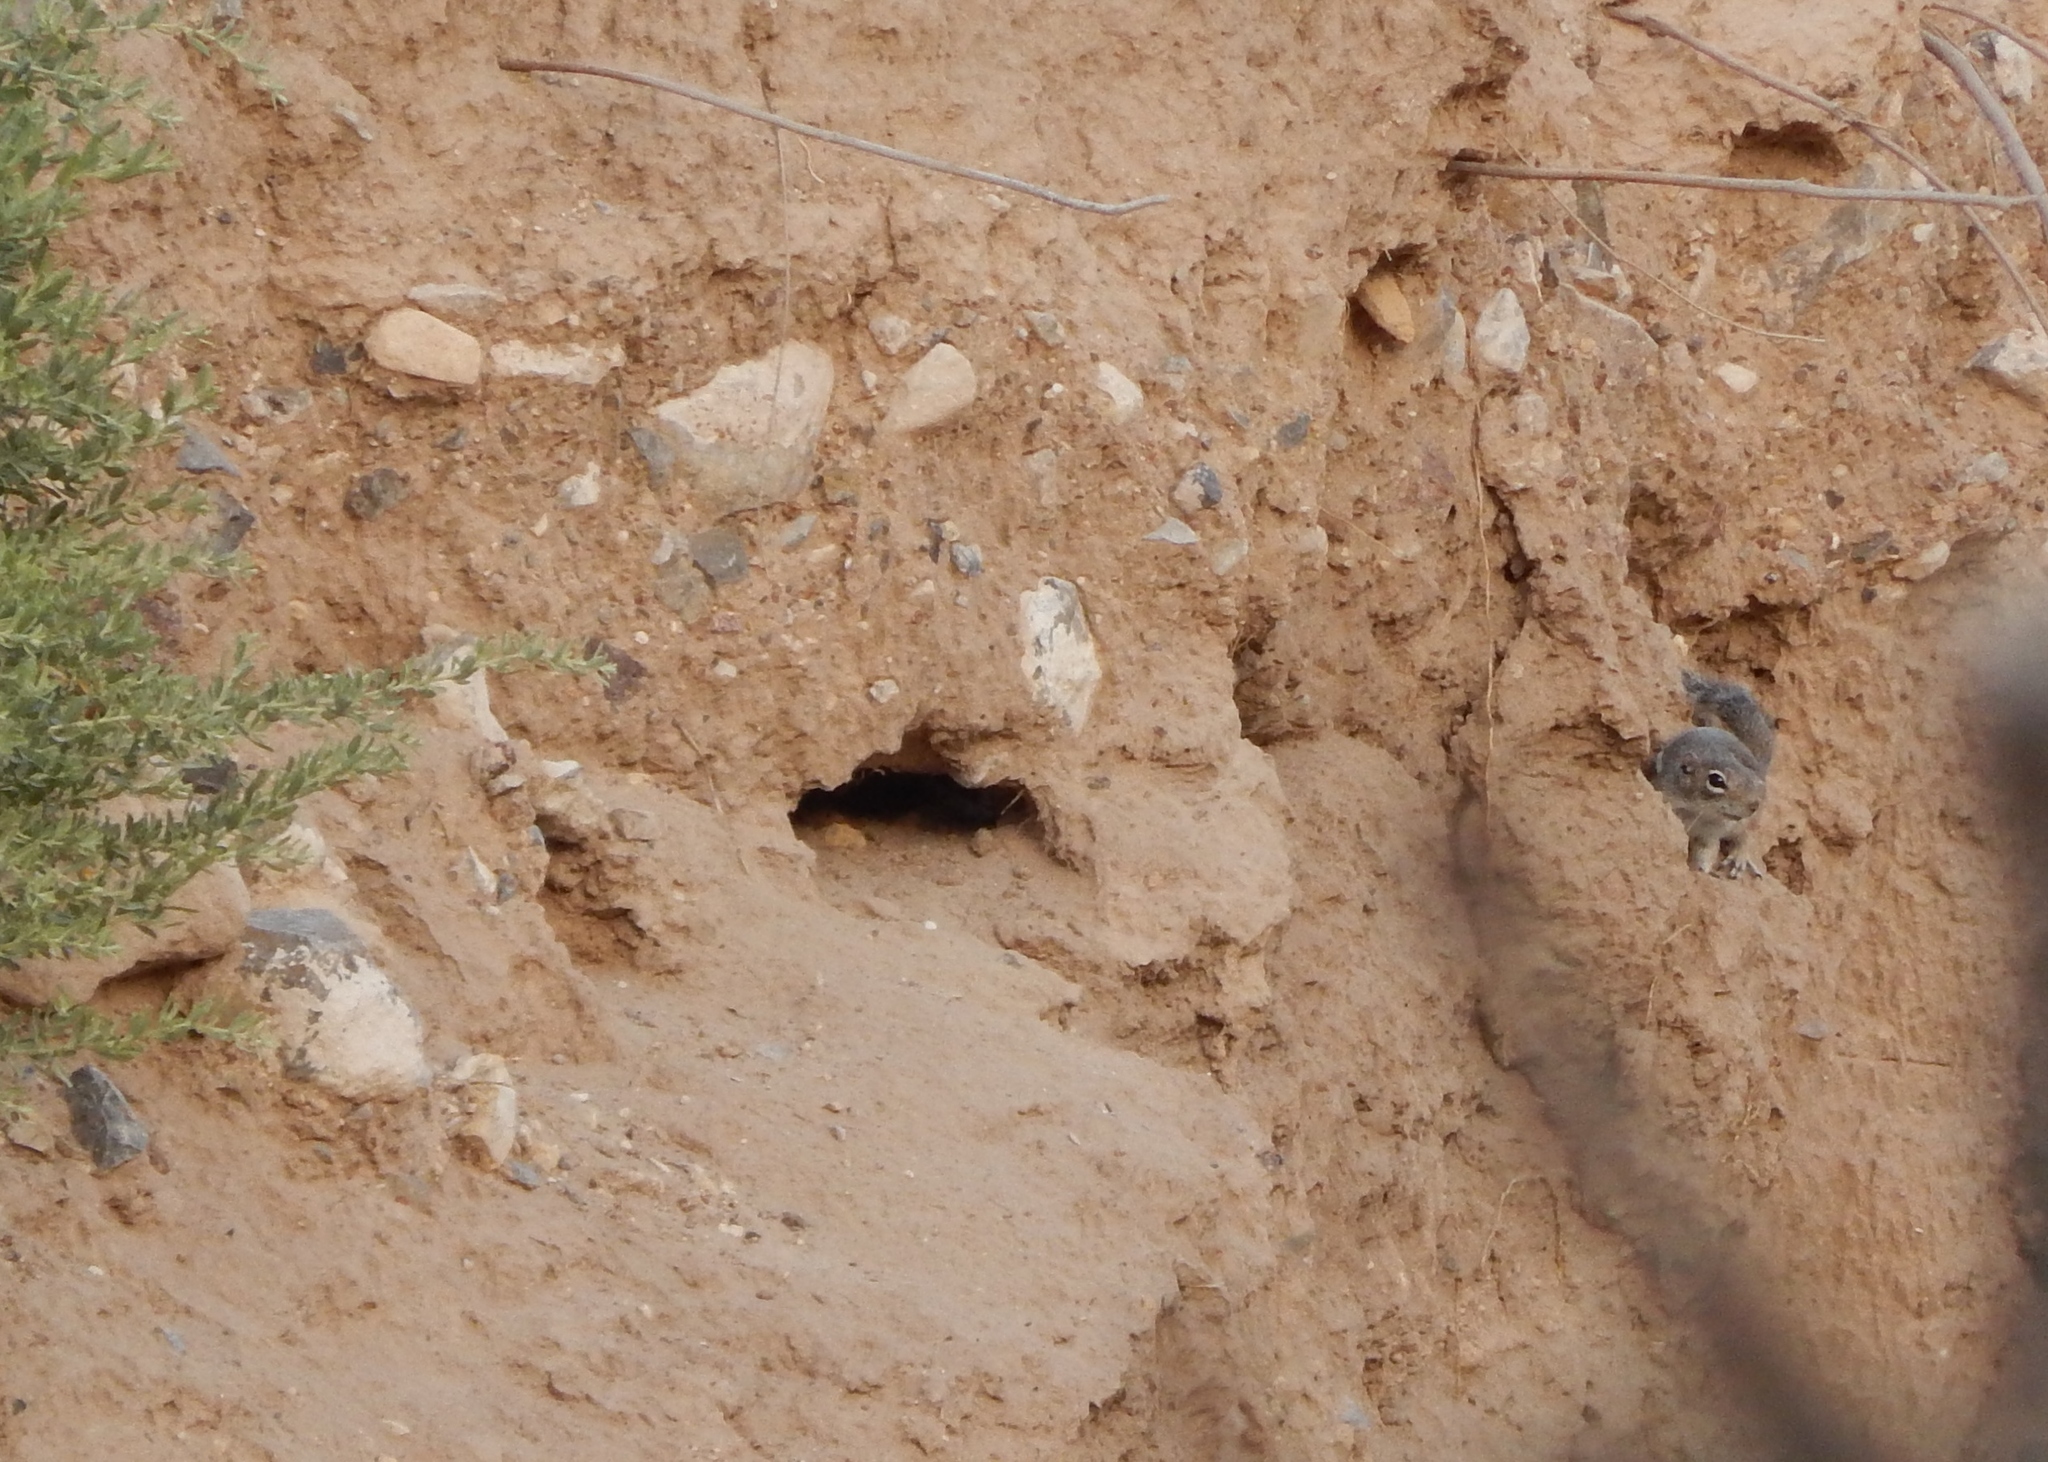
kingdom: Animalia
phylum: Chordata
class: Mammalia
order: Rodentia
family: Sciuridae
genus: Ammospermophilus
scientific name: Ammospermophilus interpres
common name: Texas antelope squirrel
